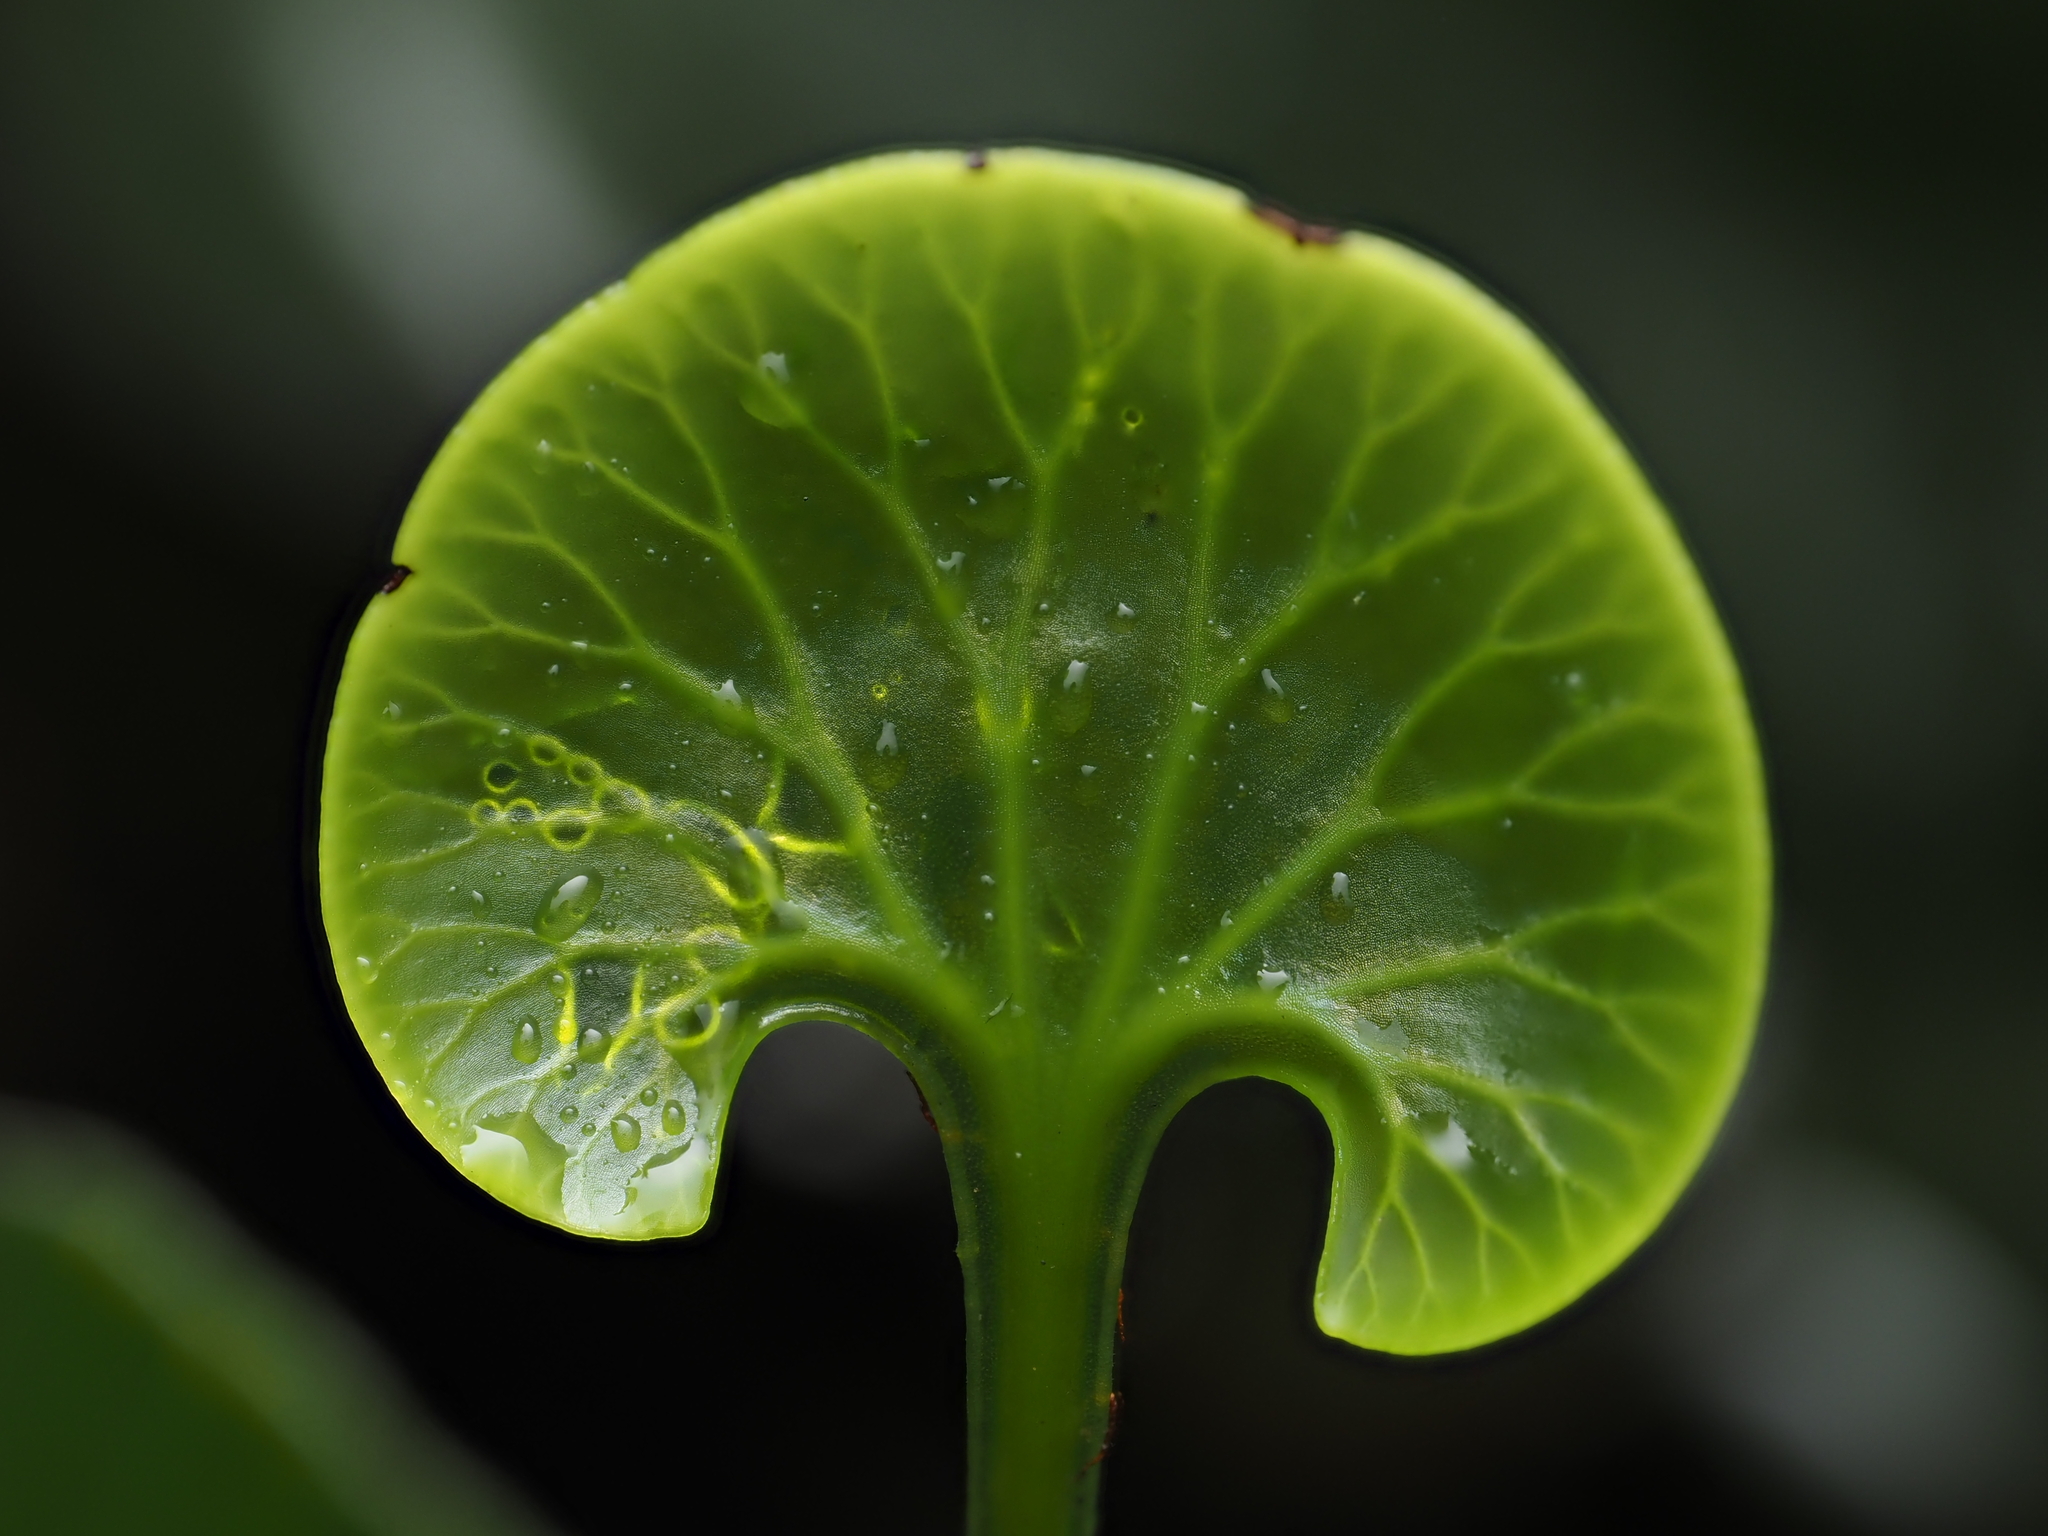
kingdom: Plantae
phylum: Tracheophyta
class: Polypodiopsida
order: Hymenophyllales
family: Hymenophyllaceae
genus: Hymenophyllum
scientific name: Hymenophyllum nephrophyllum
